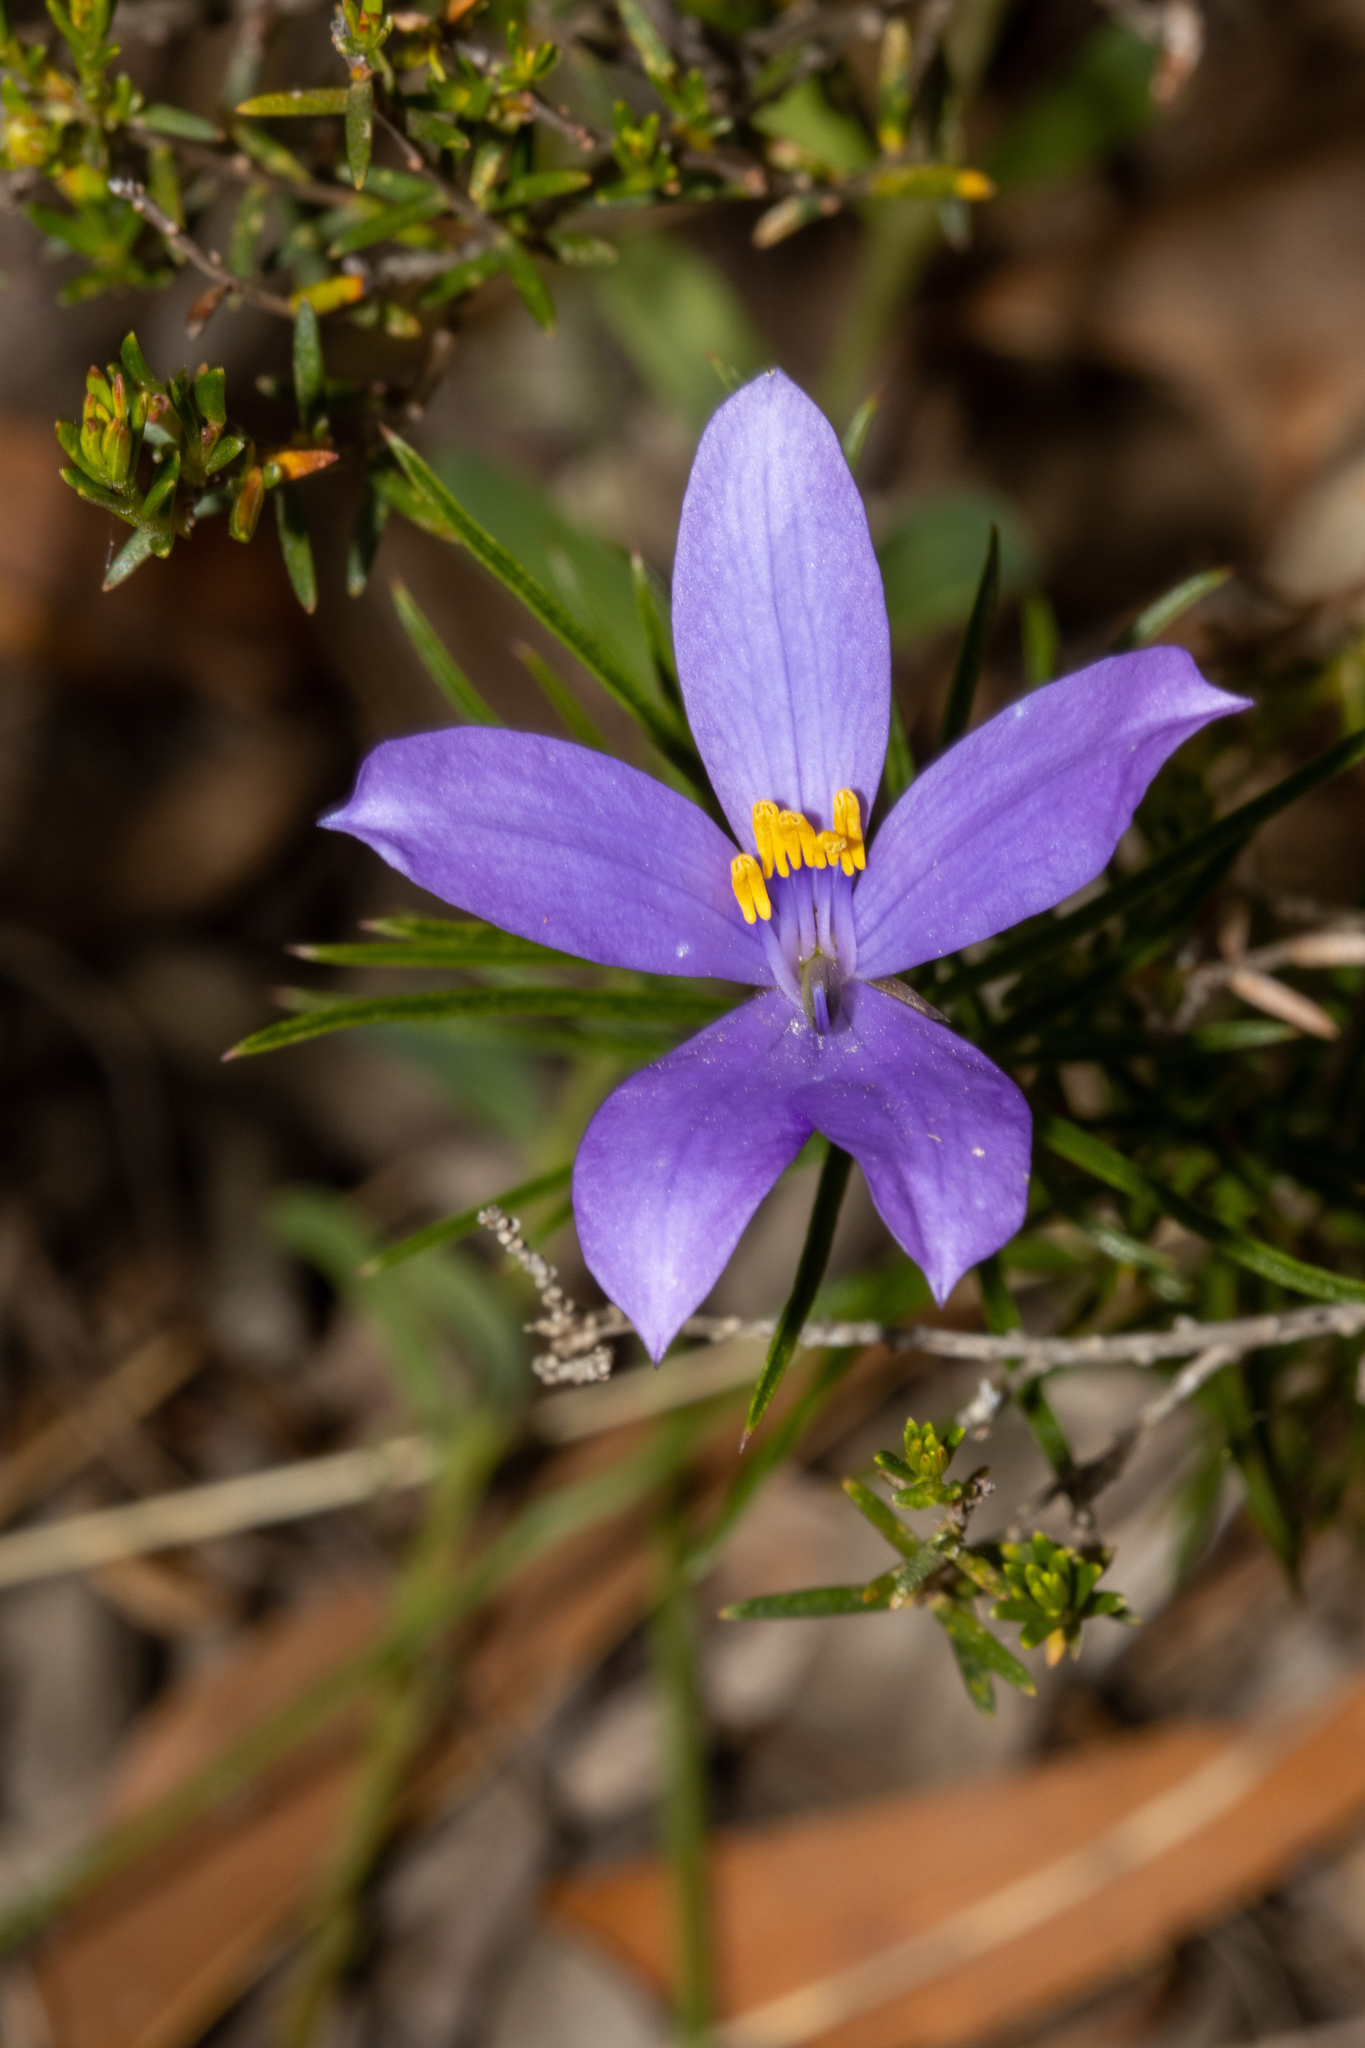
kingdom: Plantae
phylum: Tracheophyta
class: Magnoliopsida
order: Apiales
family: Pittosporaceae
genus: Cheiranthera
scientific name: Cheiranthera alternifolia
